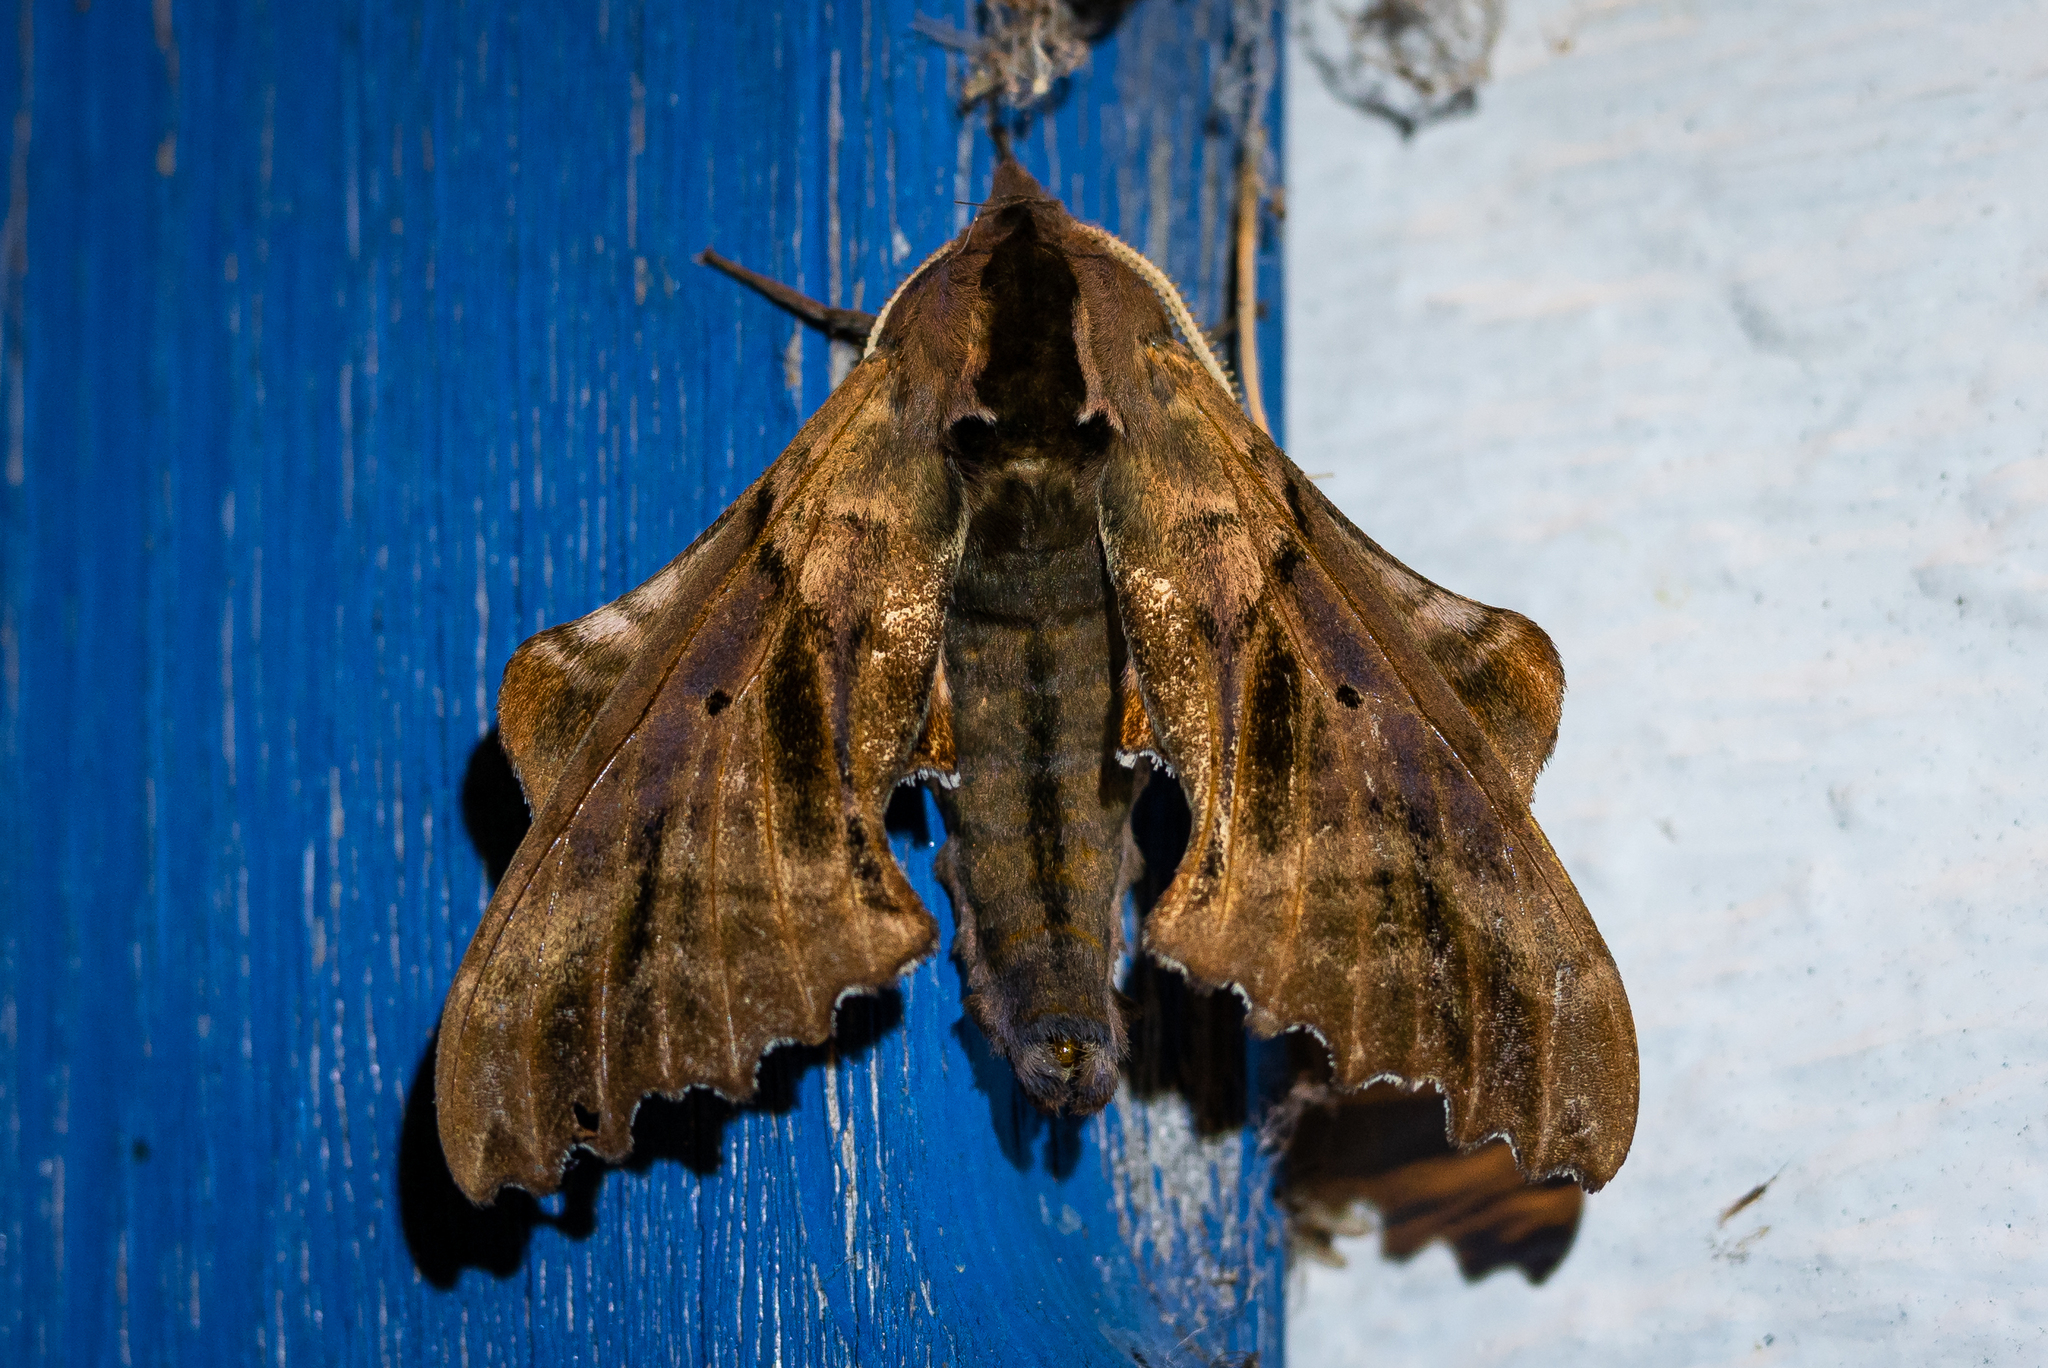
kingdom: Animalia
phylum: Arthropoda
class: Insecta
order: Lepidoptera
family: Sphingidae
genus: Paonias
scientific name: Paonias excaecata
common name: Blind-eyed sphinx
